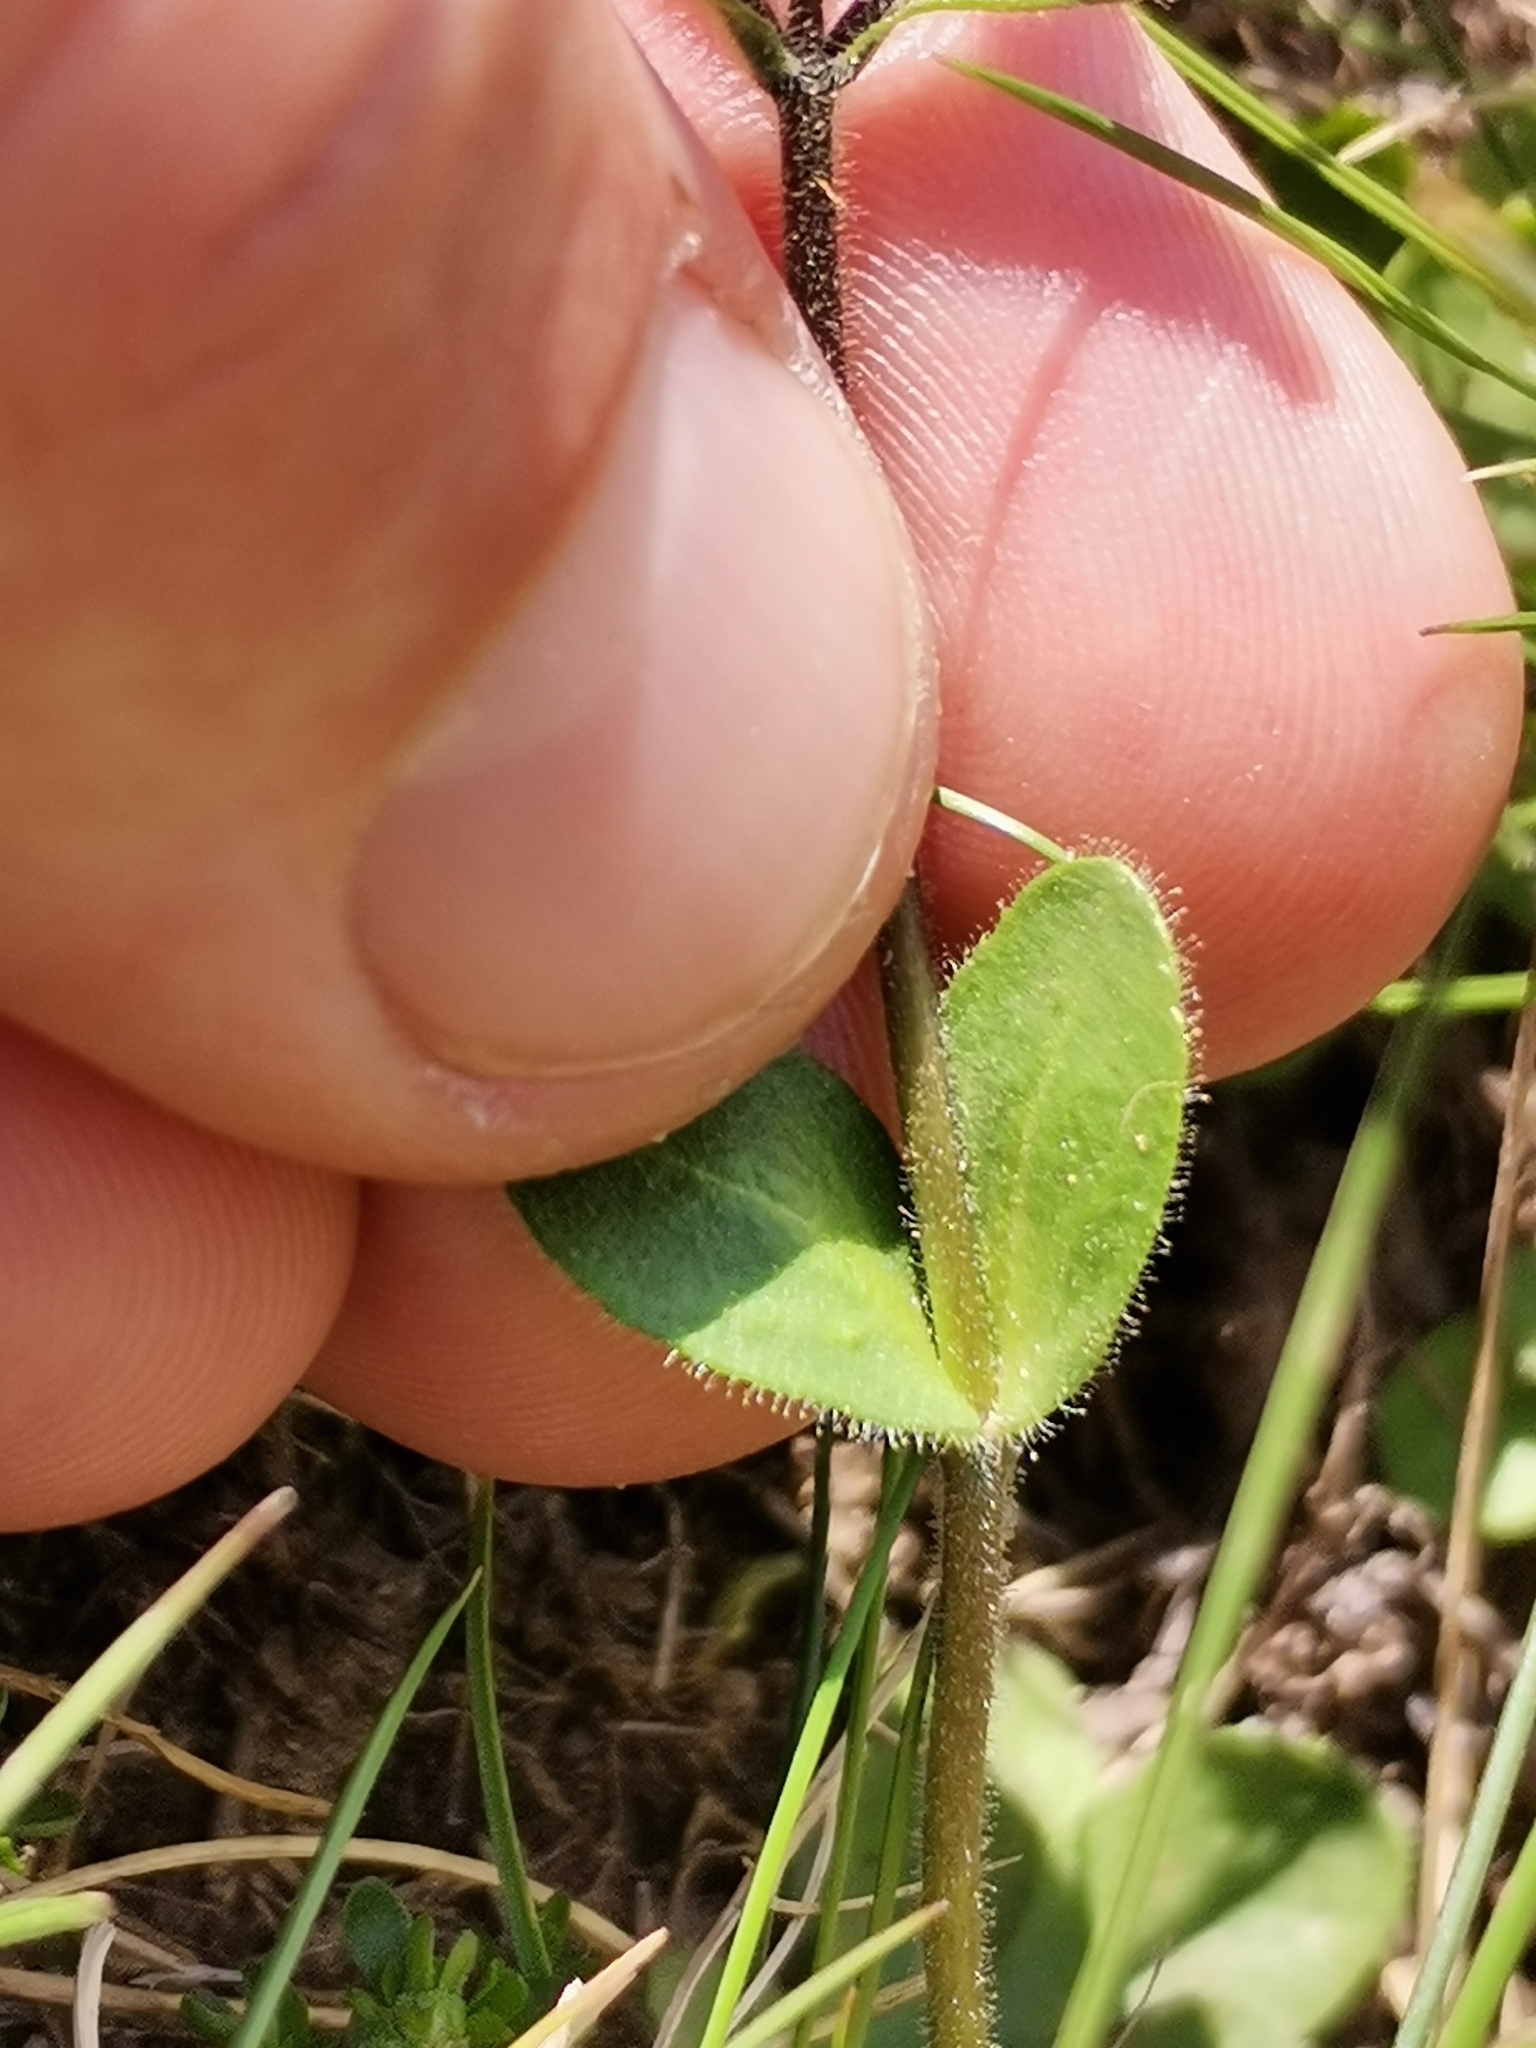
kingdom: Plantae
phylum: Tracheophyta
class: Magnoliopsida
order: Lamiales
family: Plantaginaceae
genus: Veronica
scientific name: Veronica bellidioides
